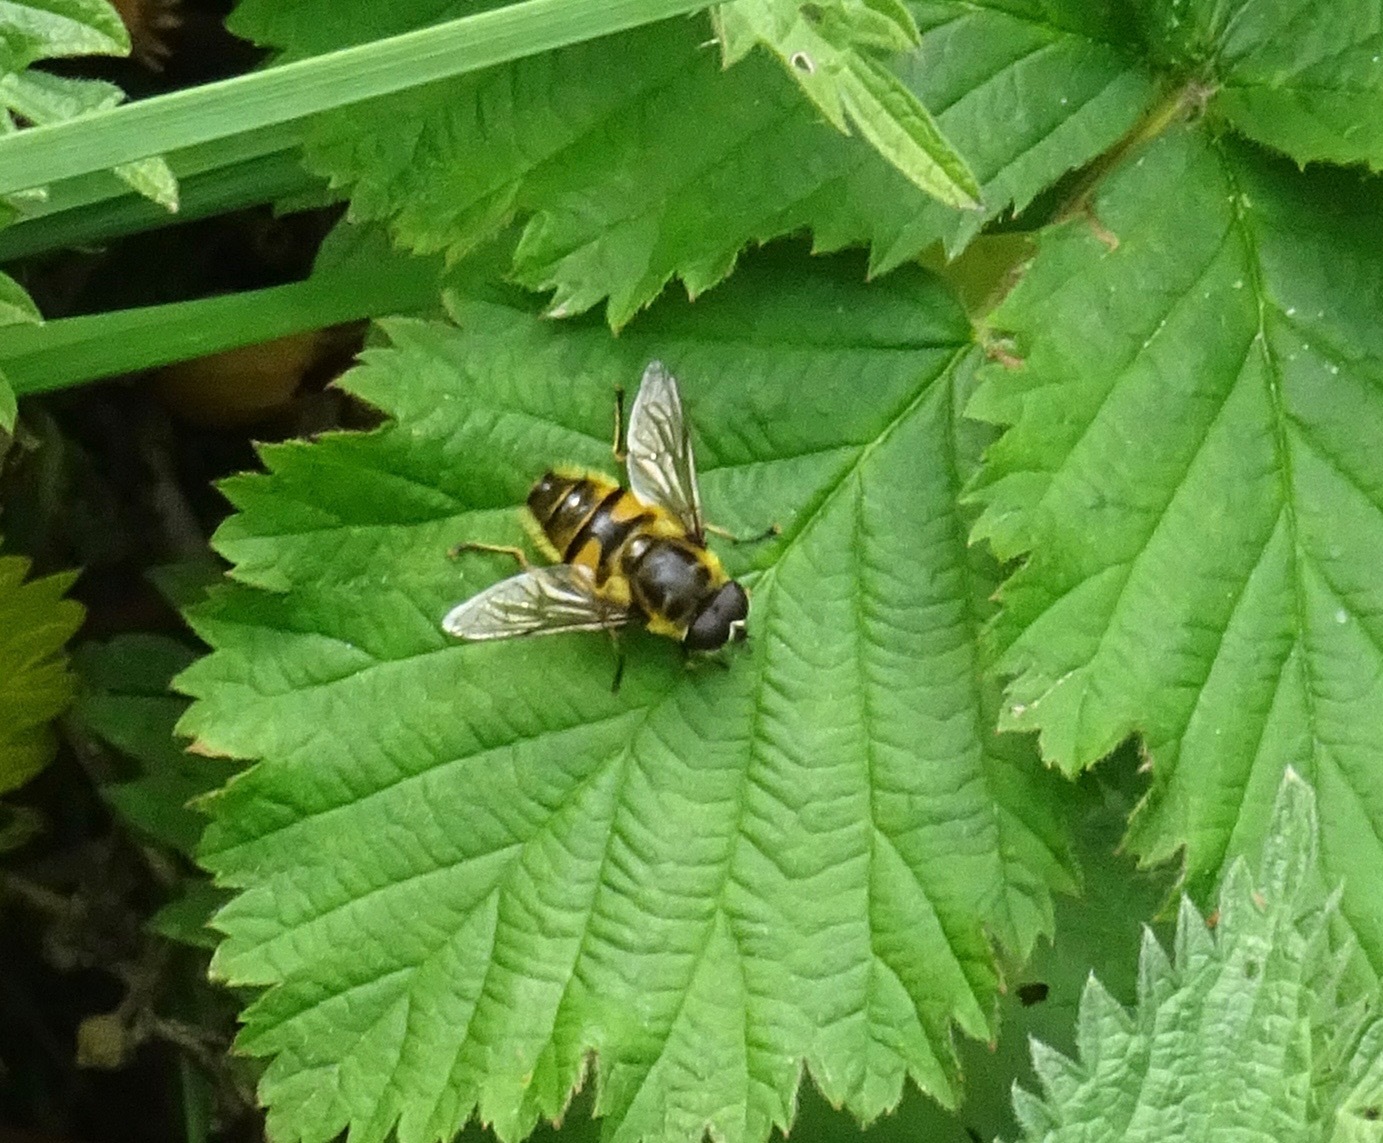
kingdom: Animalia
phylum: Arthropoda
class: Insecta
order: Diptera
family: Syrphidae
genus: Myathropa
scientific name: Myathropa florea
